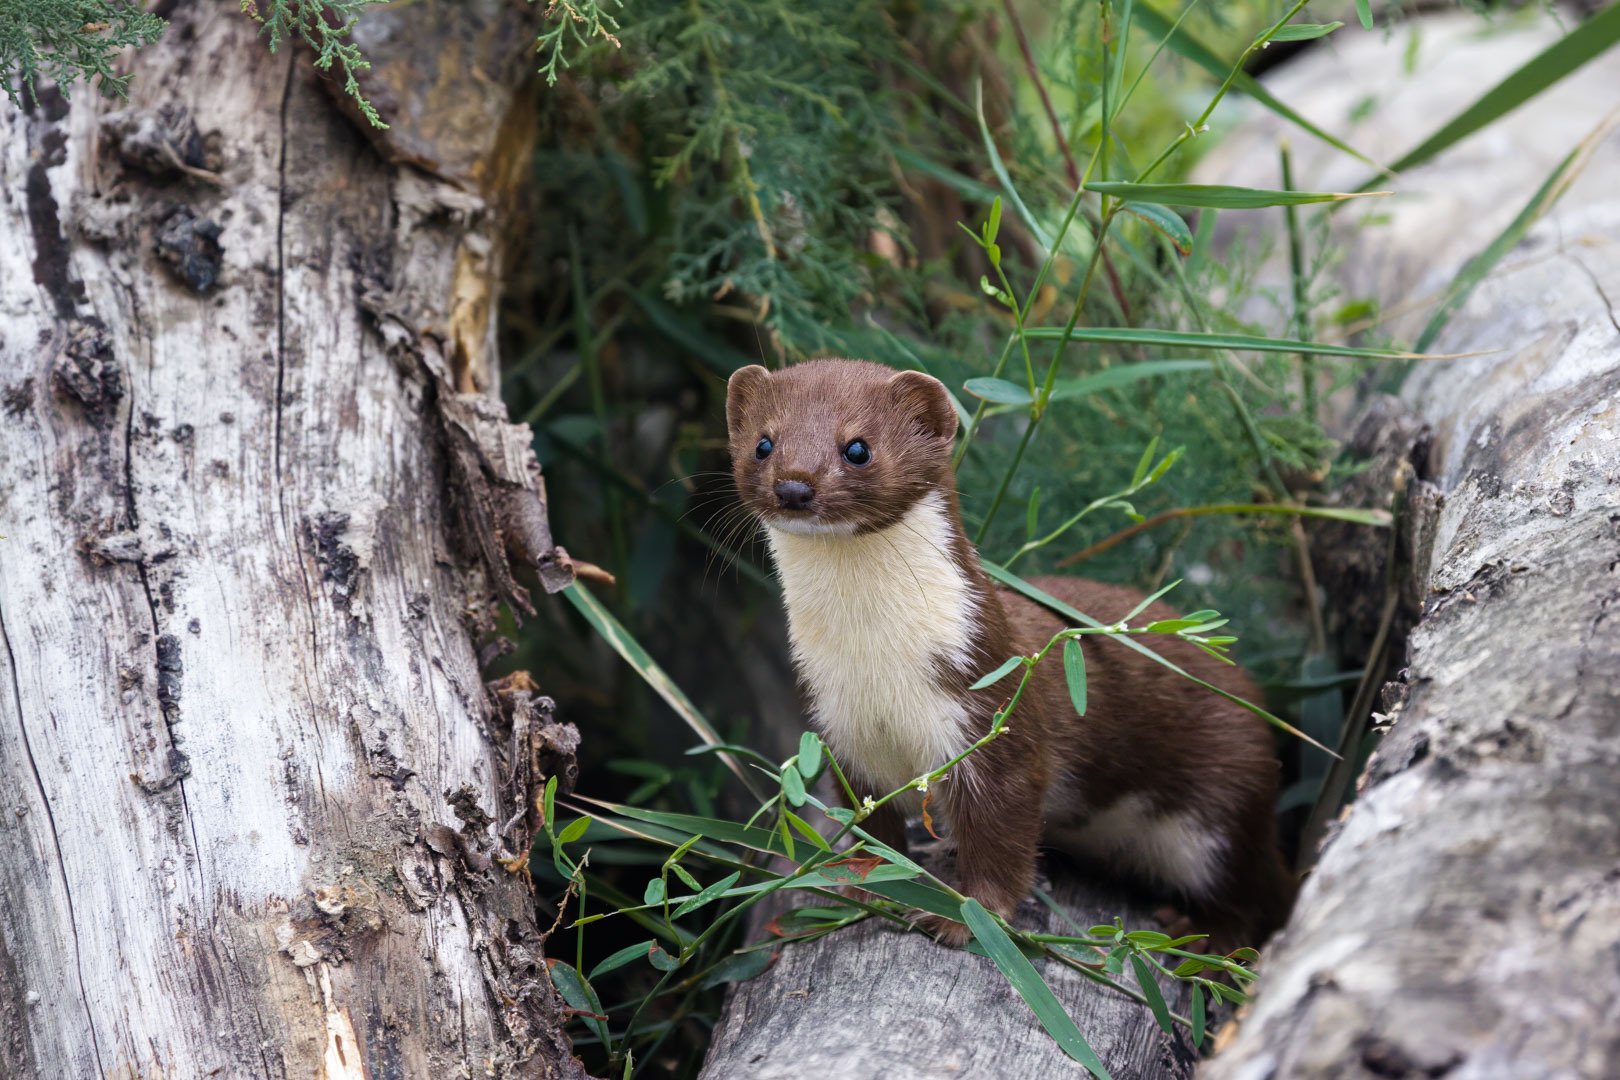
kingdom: Animalia
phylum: Chordata
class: Mammalia
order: Carnivora
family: Mustelidae
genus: Mustela
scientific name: Mustela nivalis
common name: Least weasel
